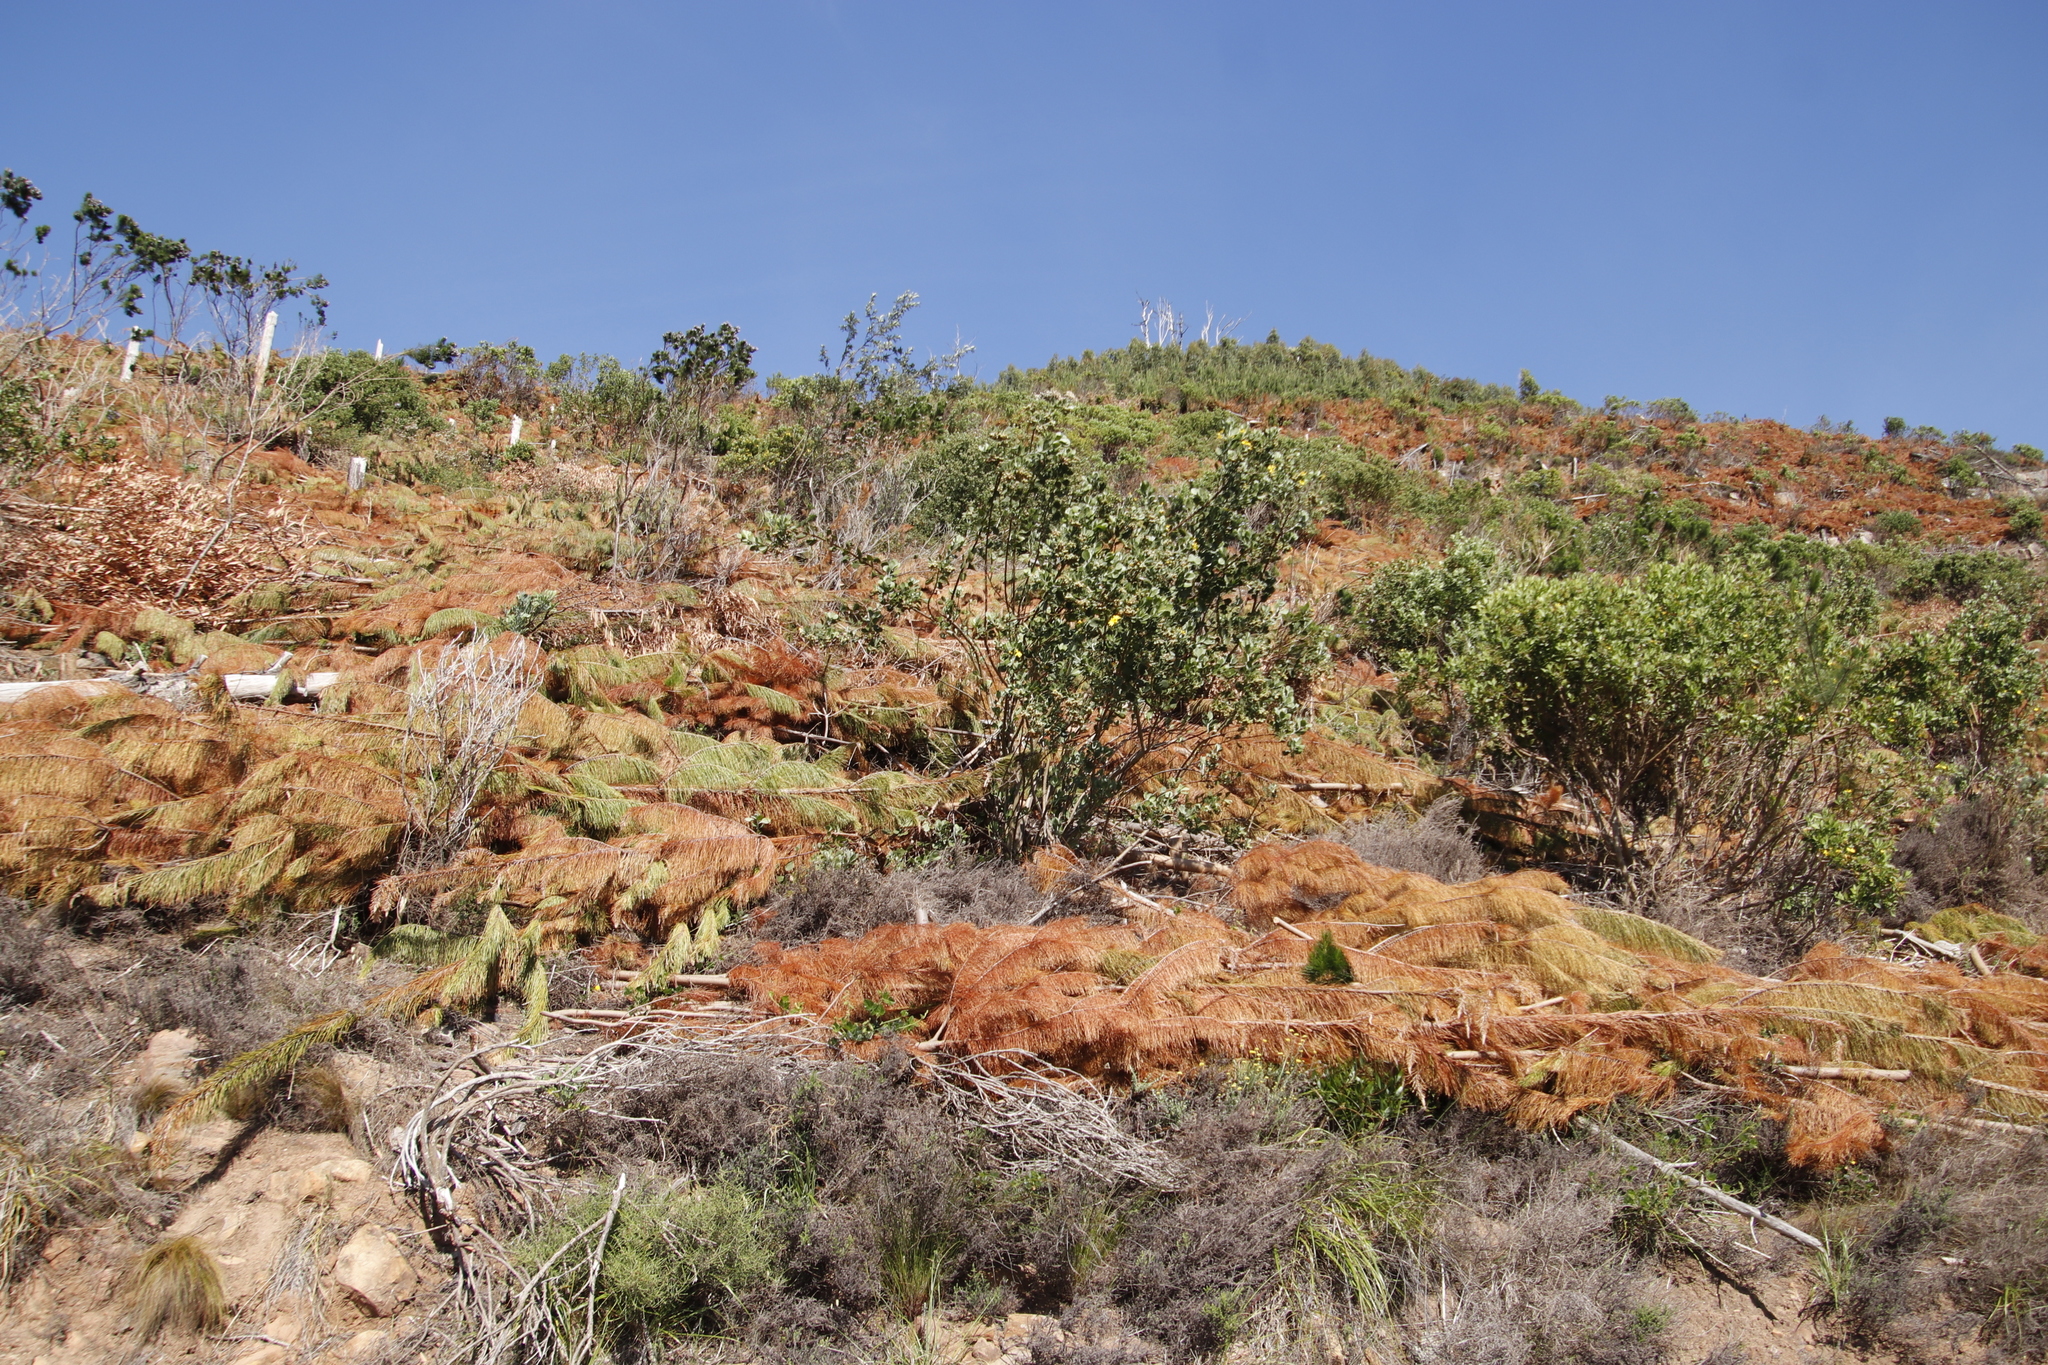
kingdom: Plantae
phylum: Tracheophyta
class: Pinopsida
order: Pinales
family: Pinaceae
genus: Pinus
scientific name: Pinus radiata
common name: Monterey pine
